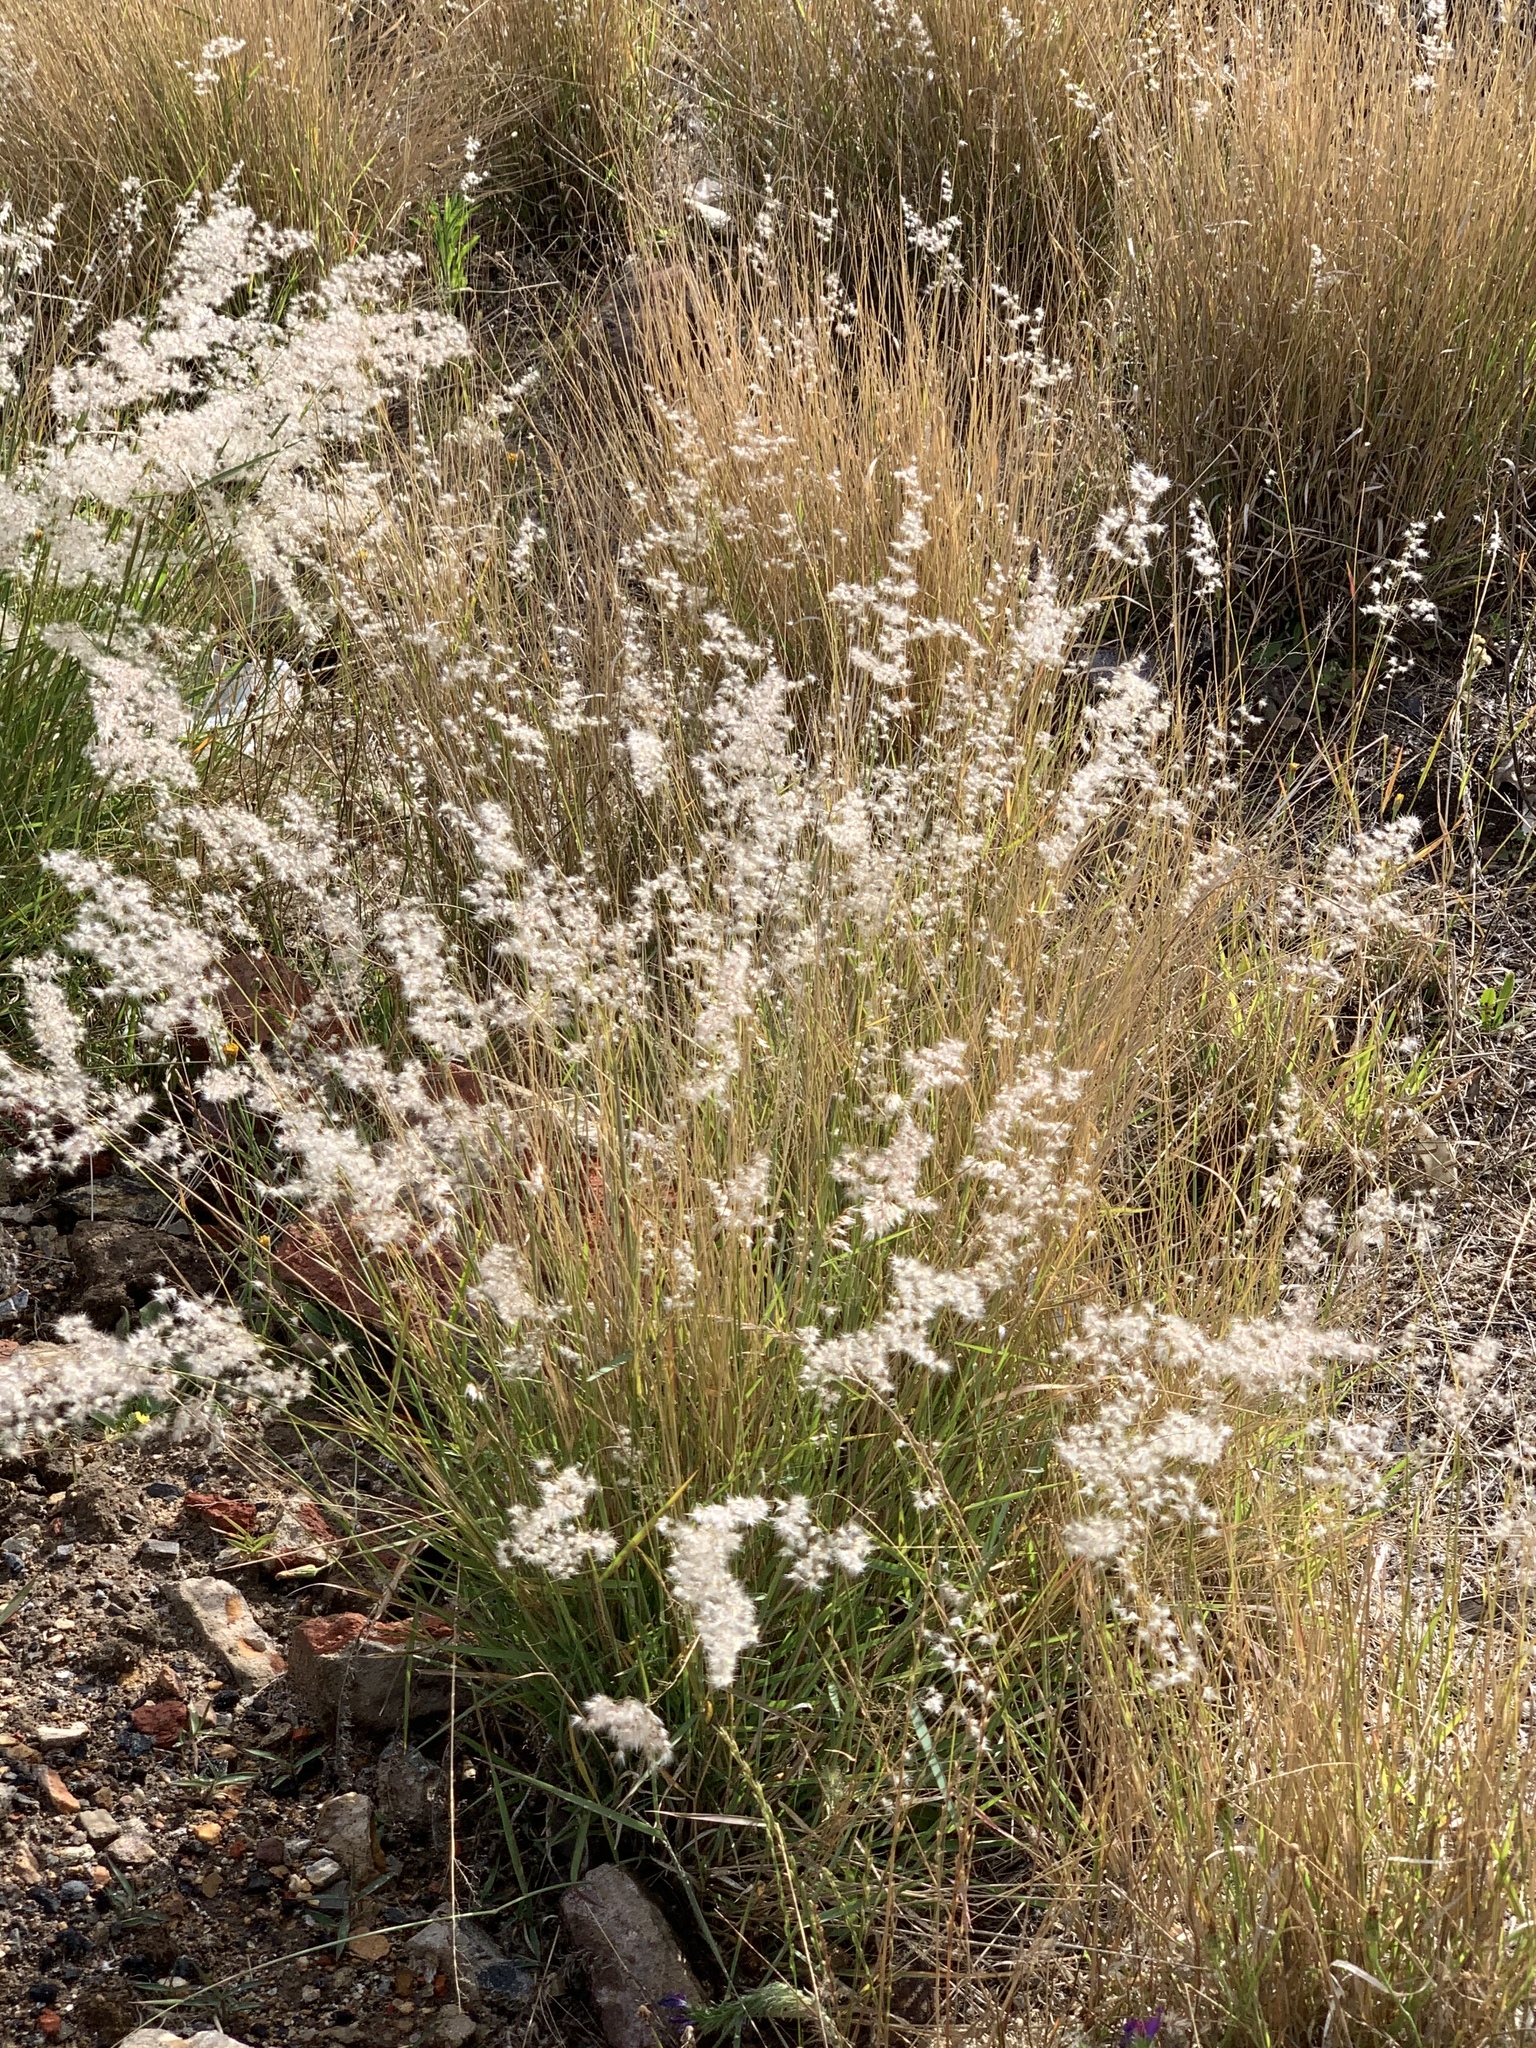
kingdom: Plantae
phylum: Tracheophyta
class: Liliopsida
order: Poales
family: Poaceae
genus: Melinis
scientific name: Melinis repens
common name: Rose natal grass
